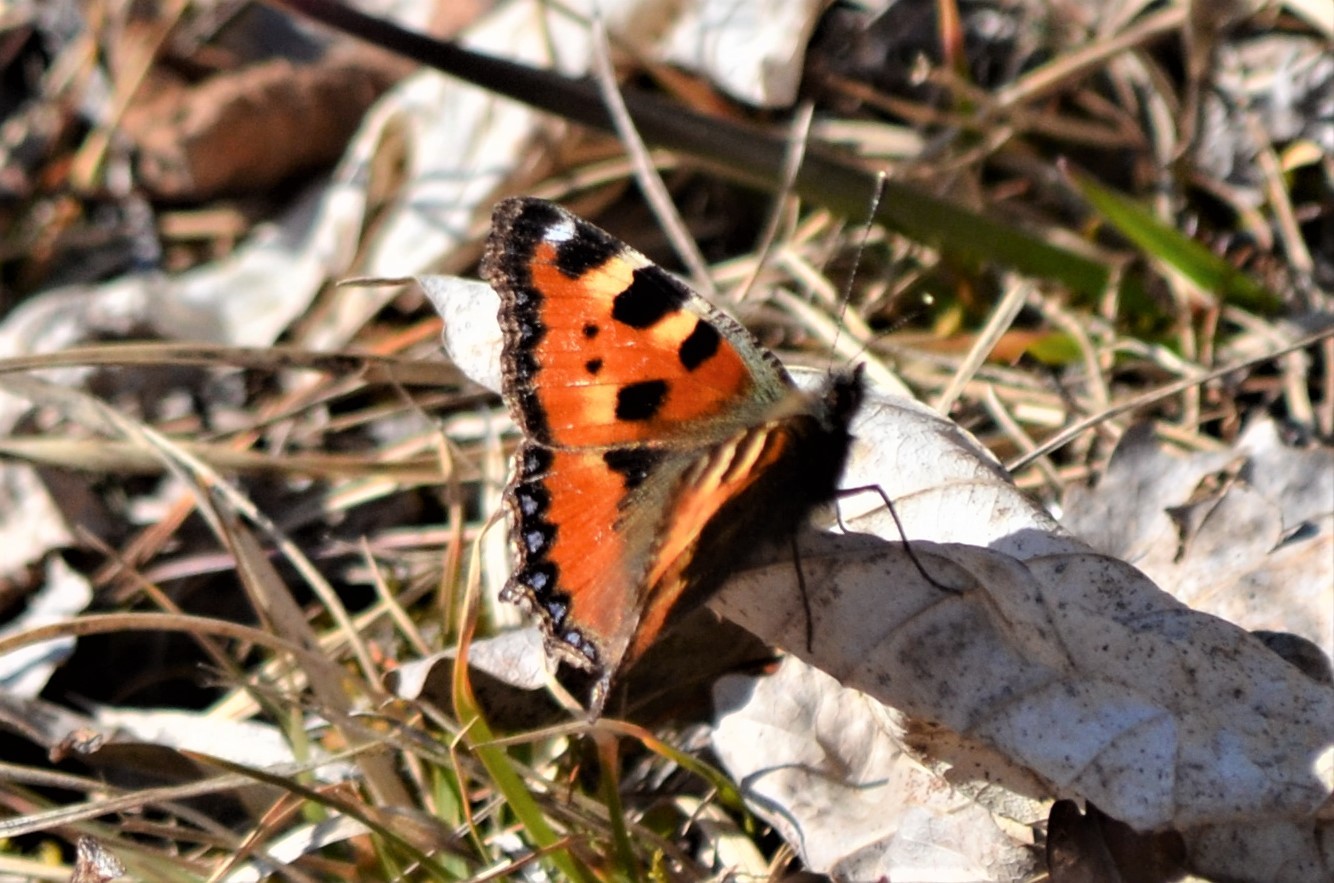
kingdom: Animalia
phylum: Arthropoda
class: Insecta
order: Lepidoptera
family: Nymphalidae
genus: Aglais
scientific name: Aglais urticae
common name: Small tortoiseshell
